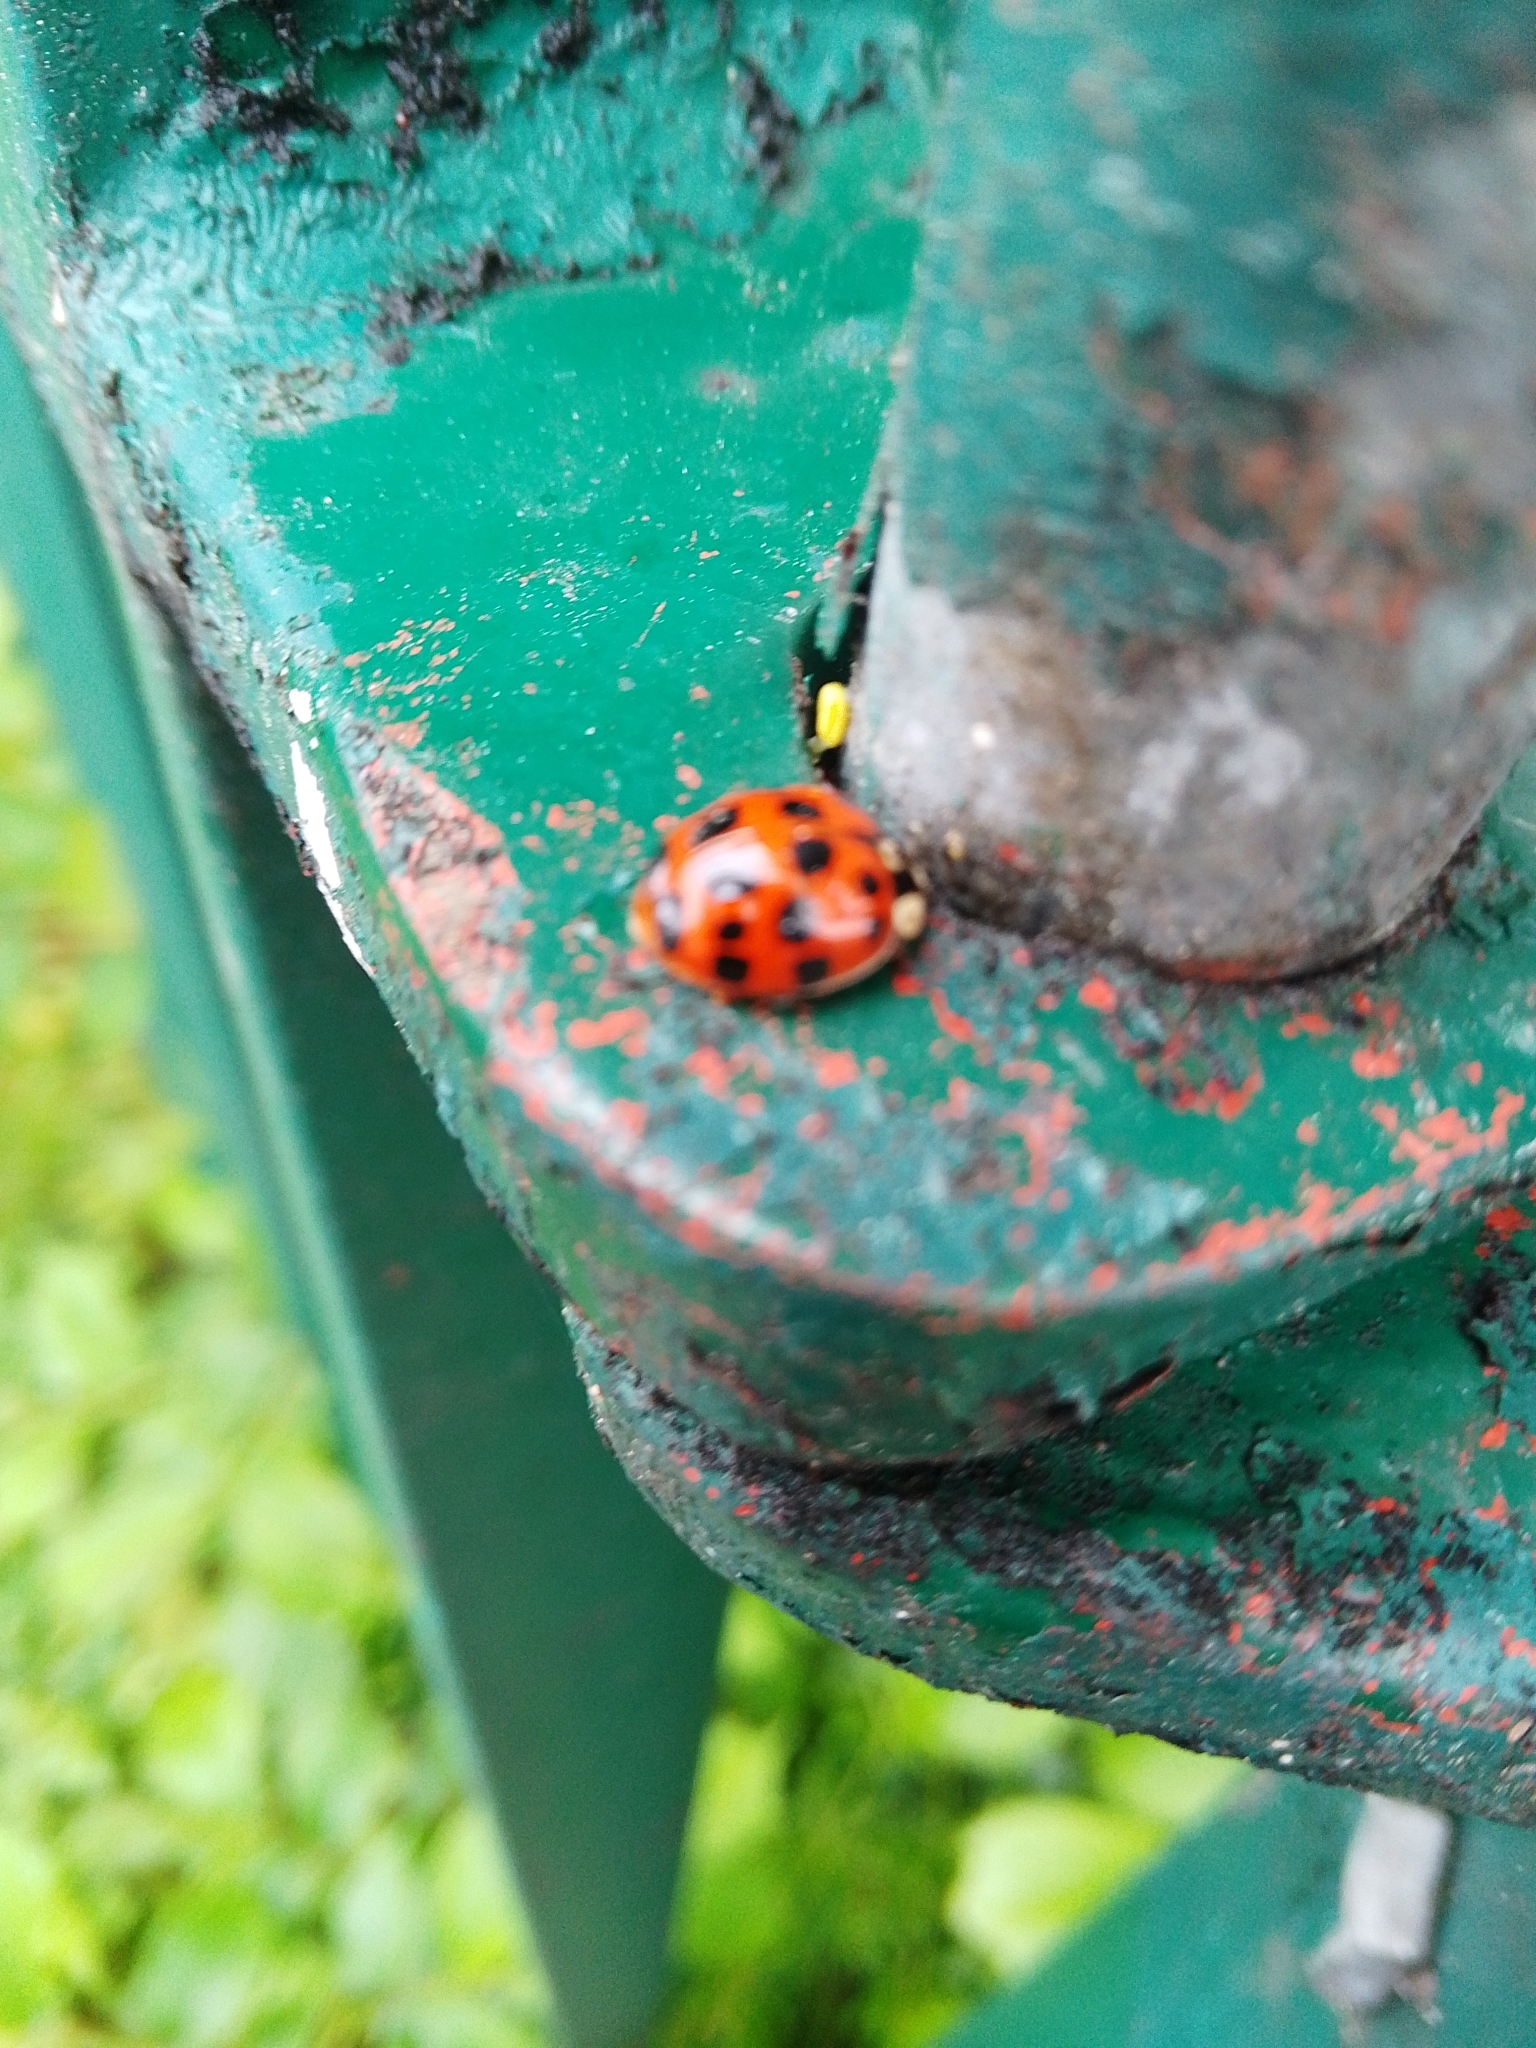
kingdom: Animalia
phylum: Arthropoda
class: Insecta
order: Coleoptera
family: Coccinellidae
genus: Harmonia
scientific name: Harmonia axyridis
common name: Harlequin ladybird
